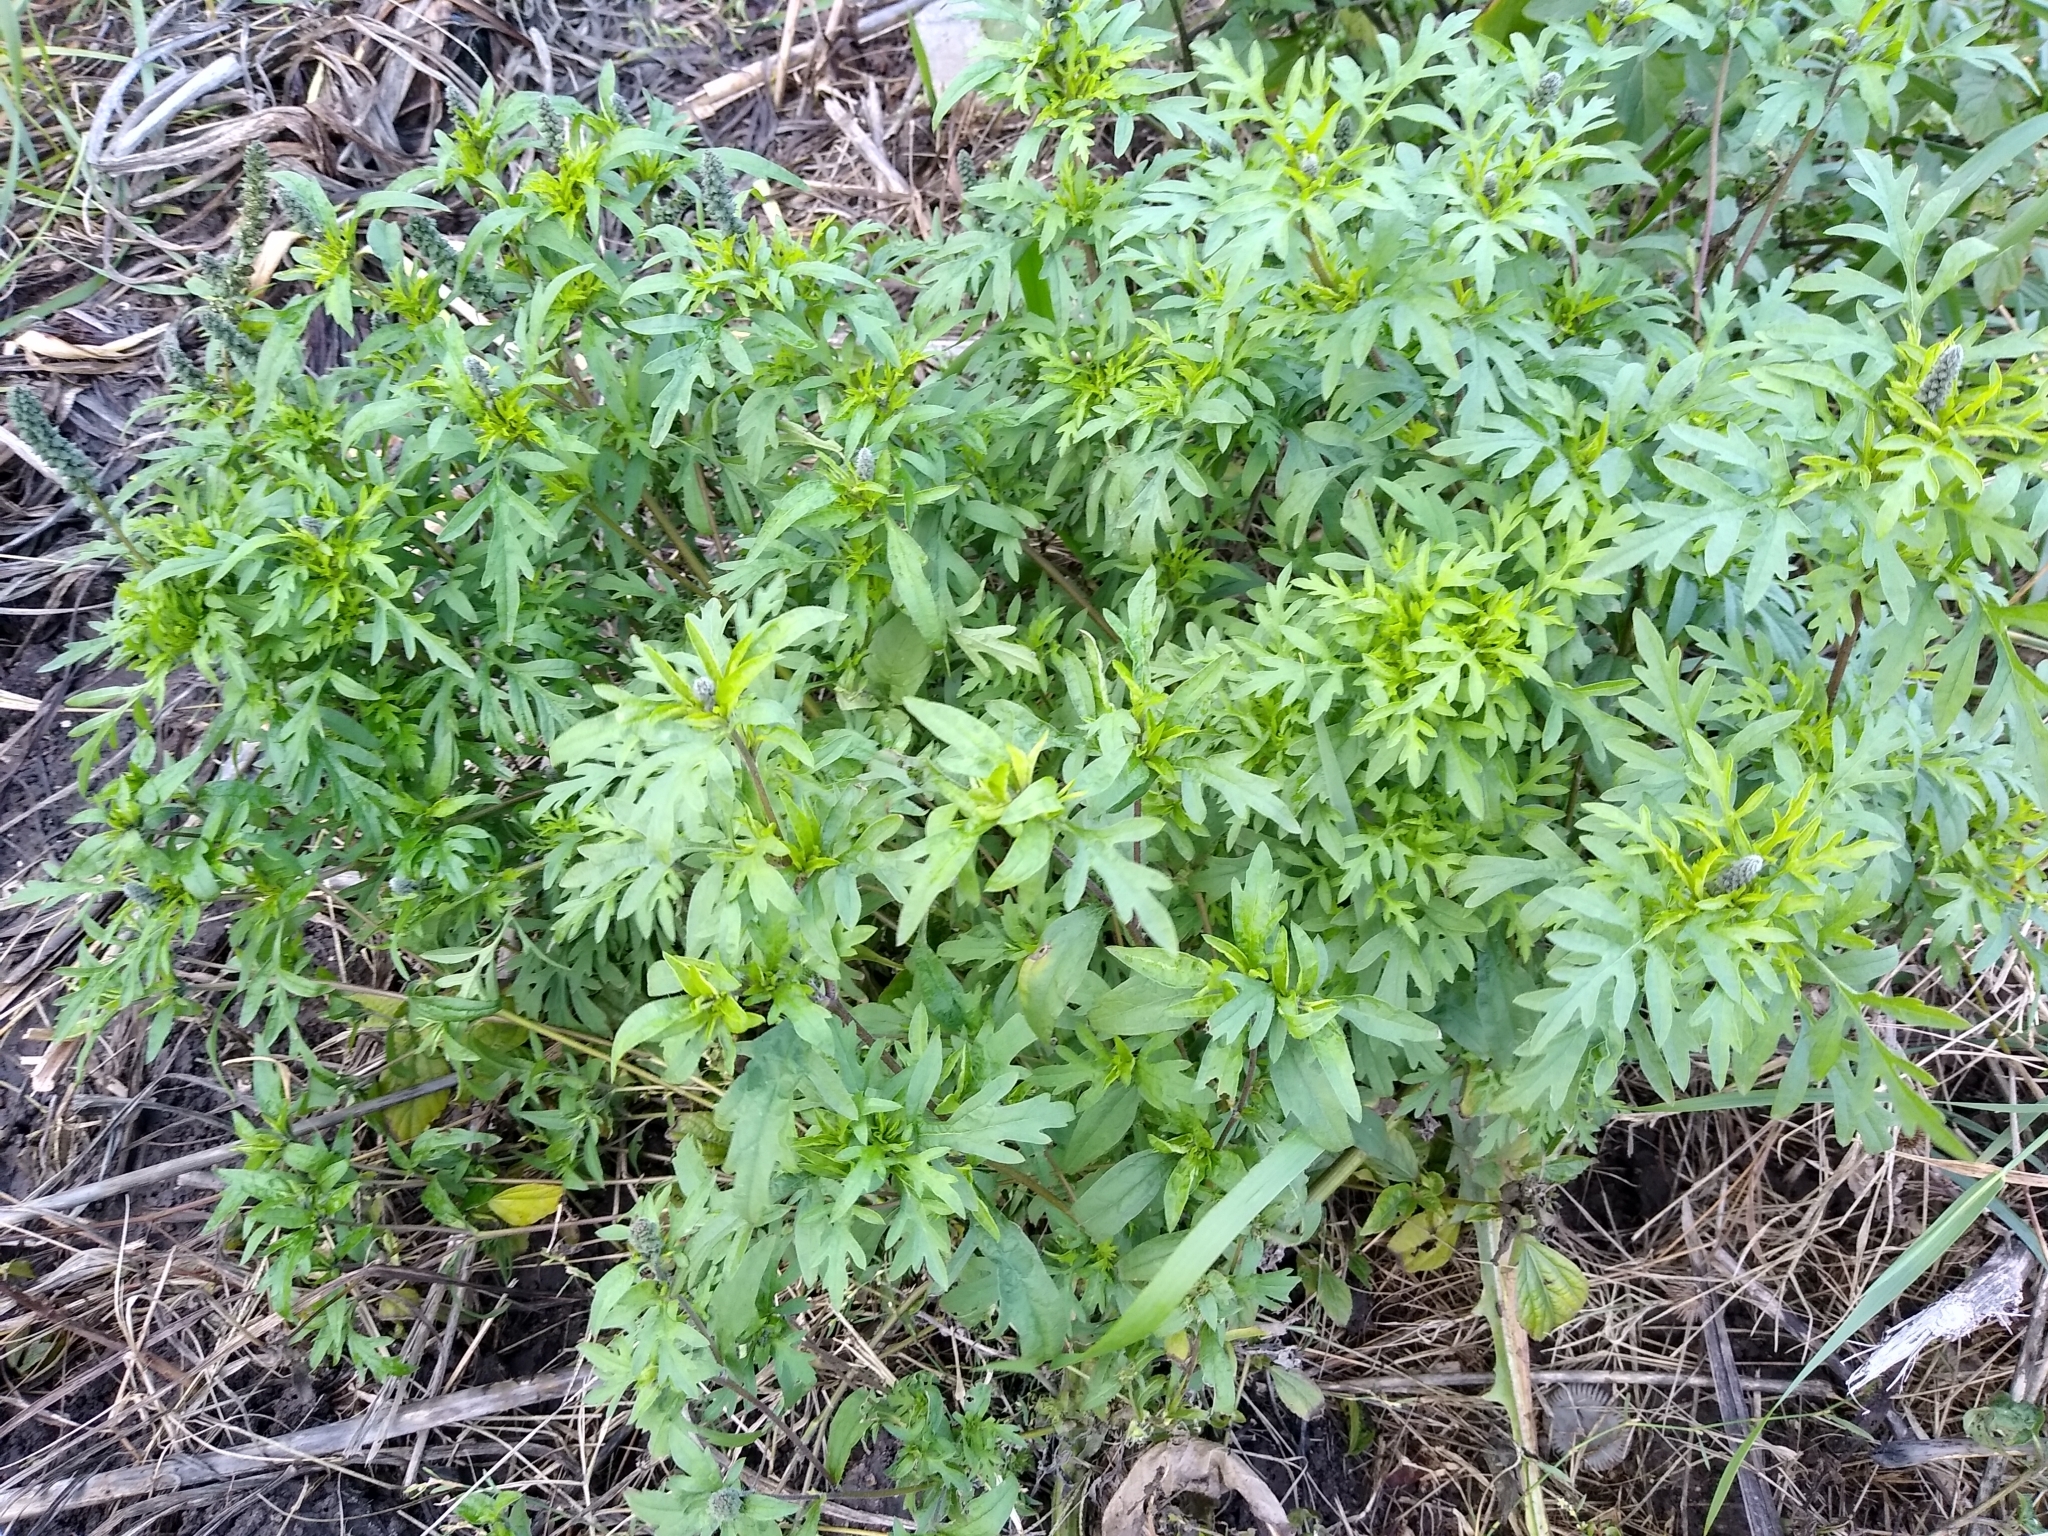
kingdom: Plantae
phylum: Tracheophyta
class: Magnoliopsida
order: Asterales
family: Asteraceae
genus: Ambrosia
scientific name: Ambrosia artemisiifolia
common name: Annual ragweed
